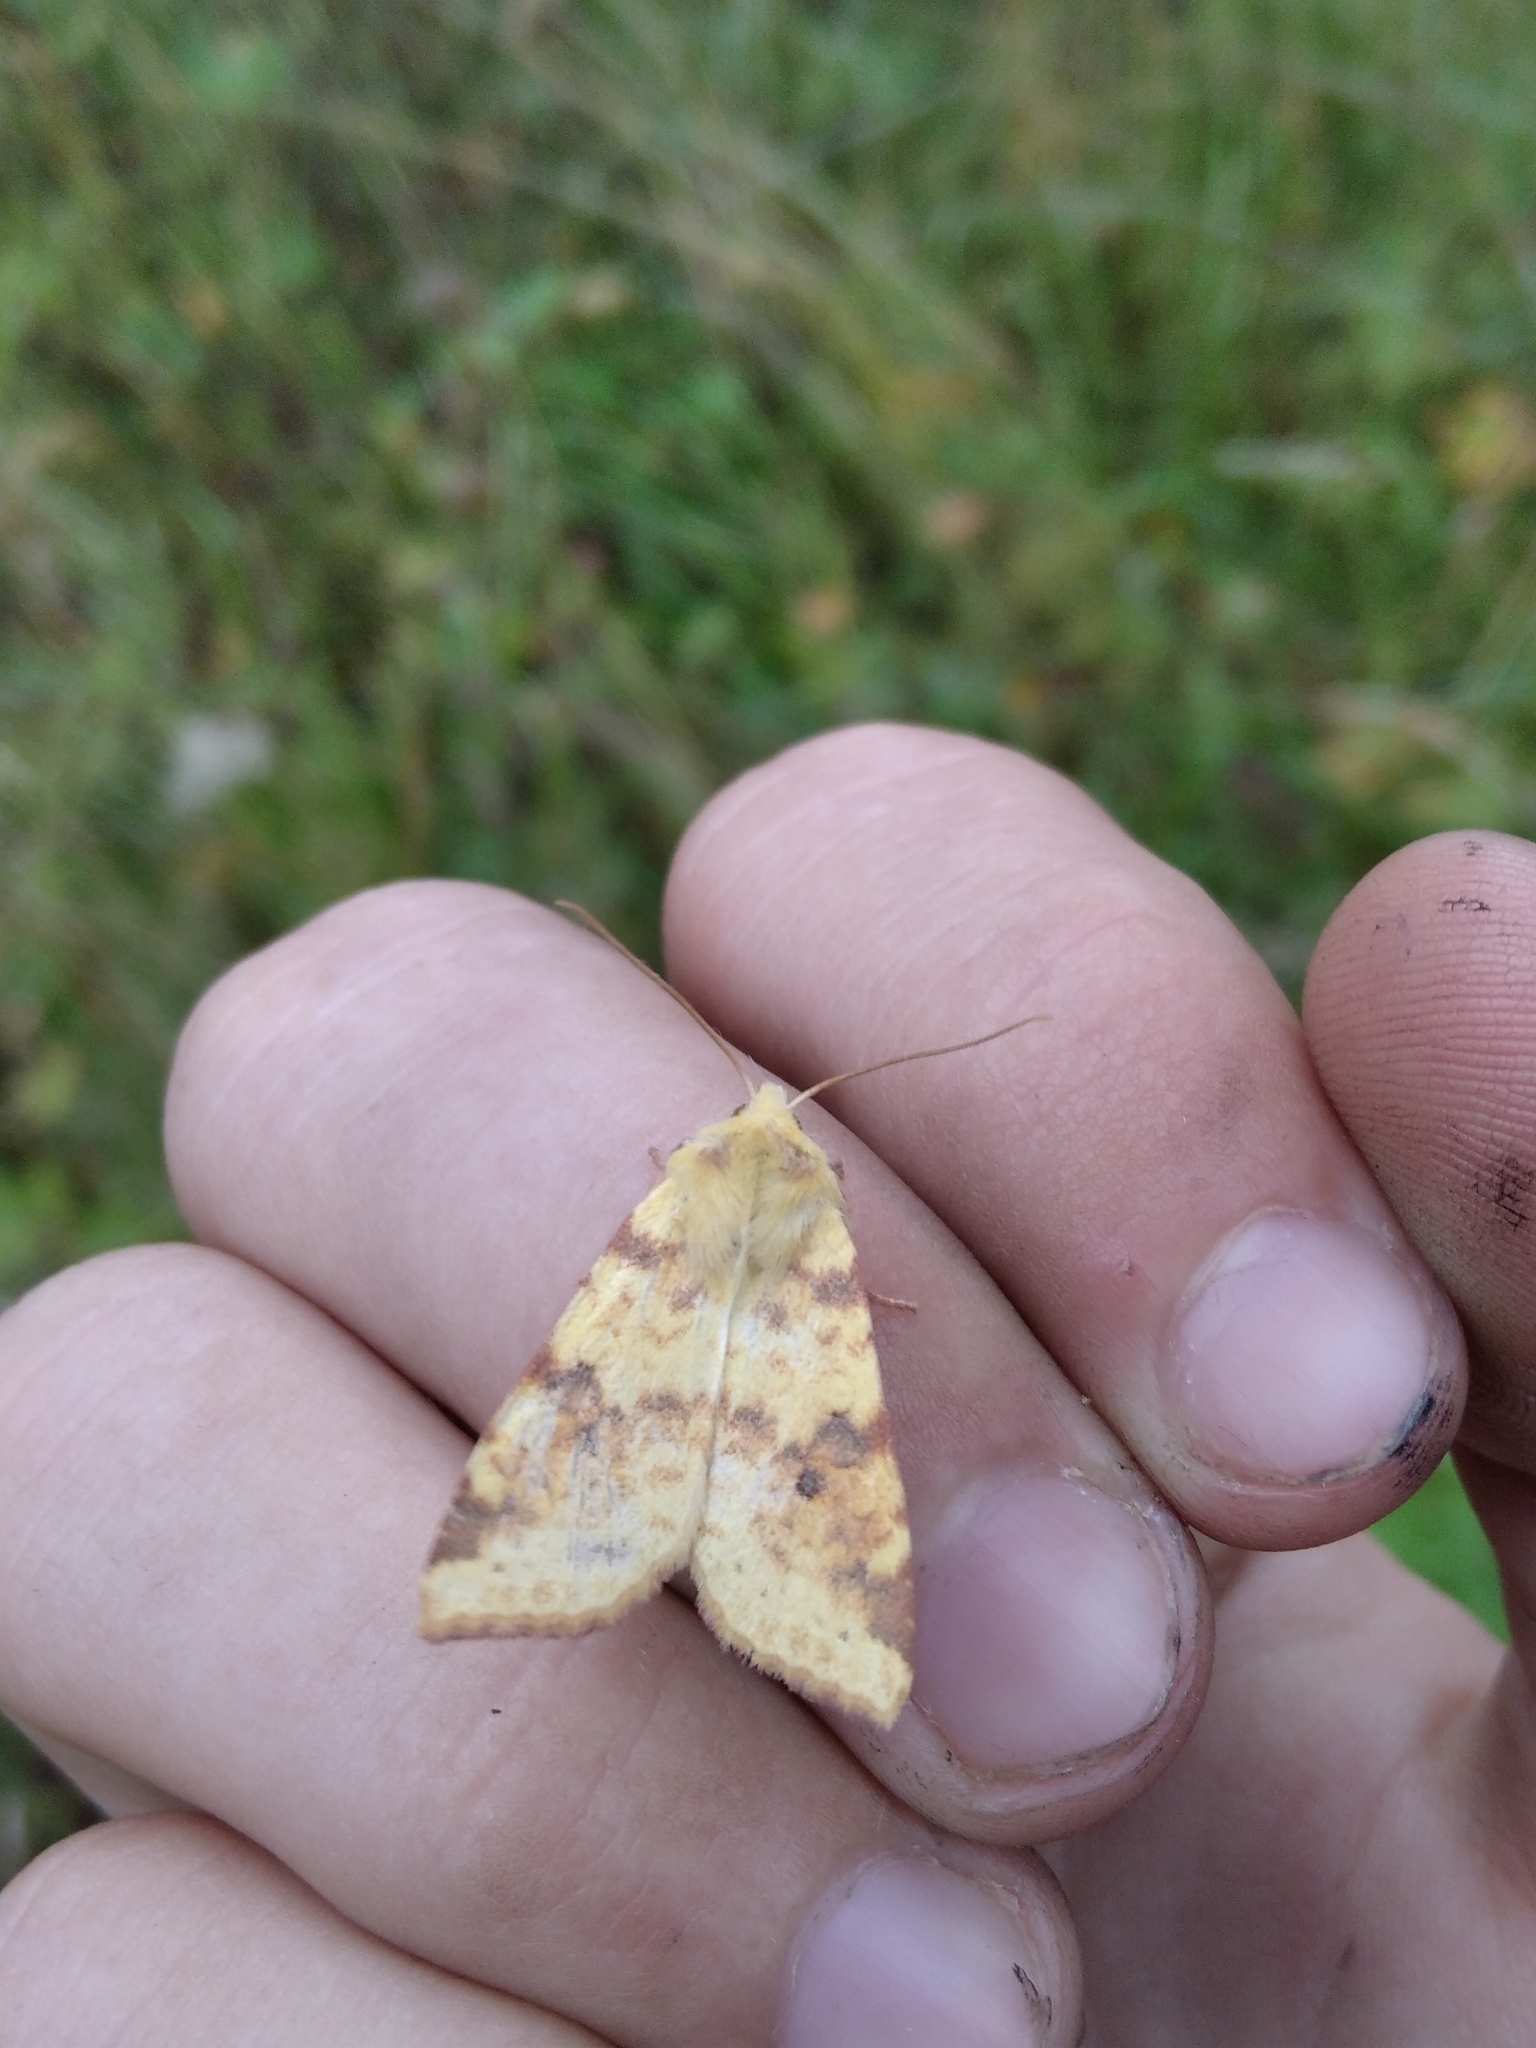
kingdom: Animalia
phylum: Arthropoda
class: Insecta
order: Lepidoptera
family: Noctuidae
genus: Xanthia
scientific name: Xanthia icteritia
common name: The sallow
